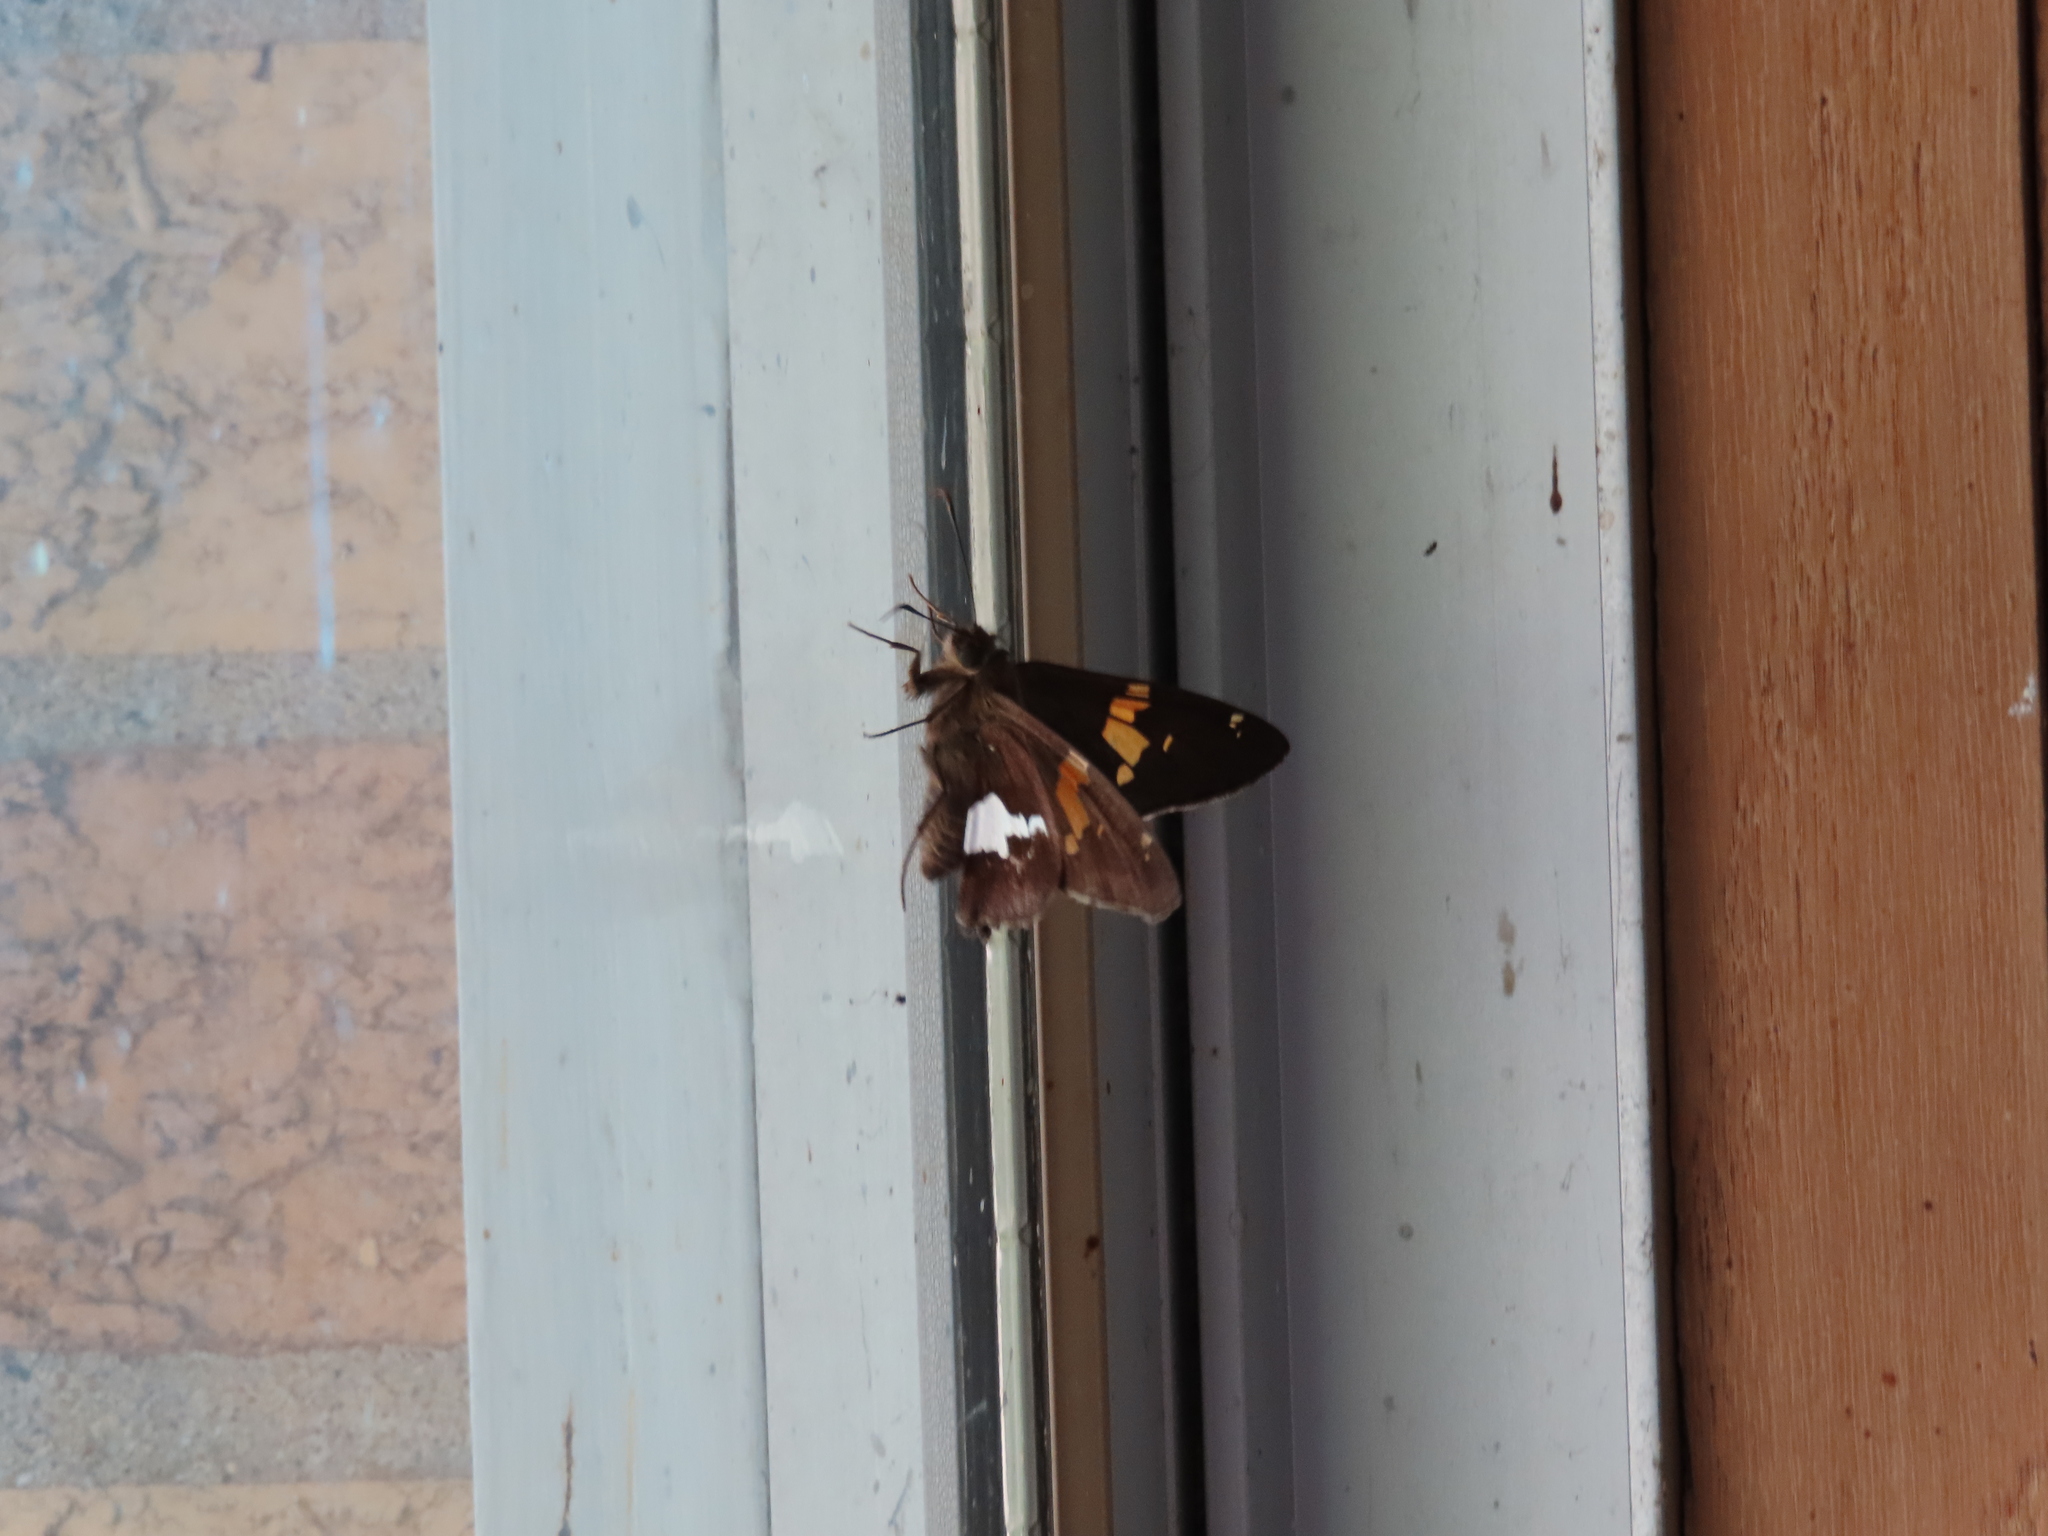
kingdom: Animalia
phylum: Arthropoda
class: Insecta
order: Lepidoptera
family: Hesperiidae
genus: Epargyreus
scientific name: Epargyreus clarus
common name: Silver-spotted skipper
